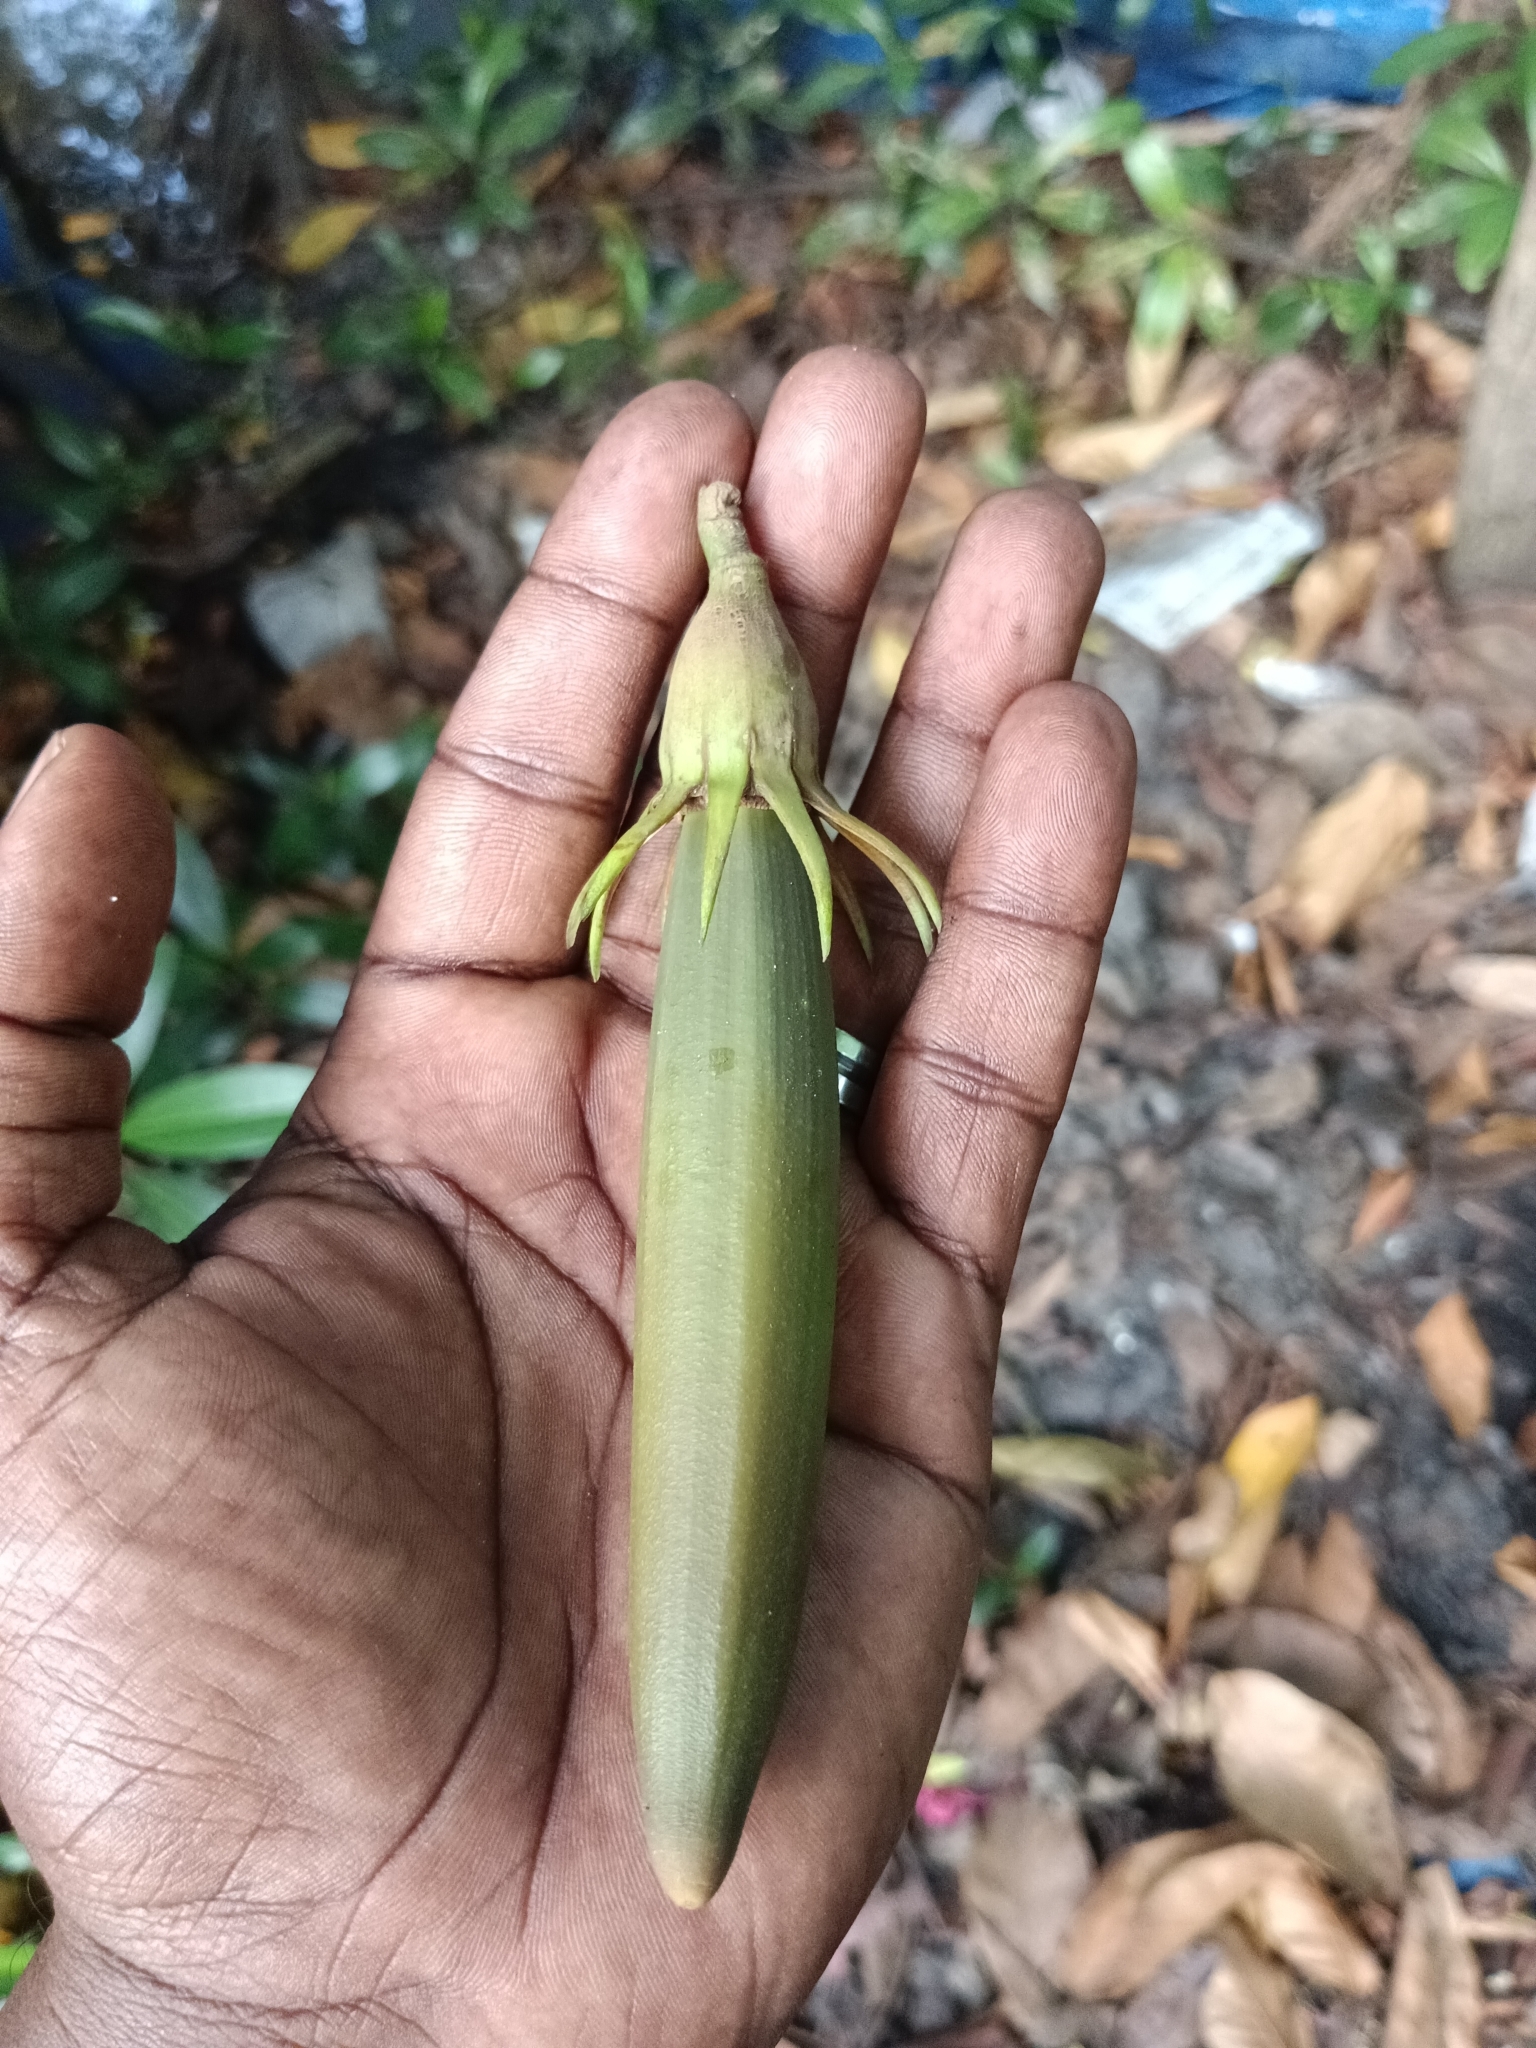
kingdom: Plantae
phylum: Tracheophyta
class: Magnoliopsida
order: Malpighiales
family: Rhizophoraceae
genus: Bruguiera
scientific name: Bruguiera gymnorhiza
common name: Oriental mangrove
